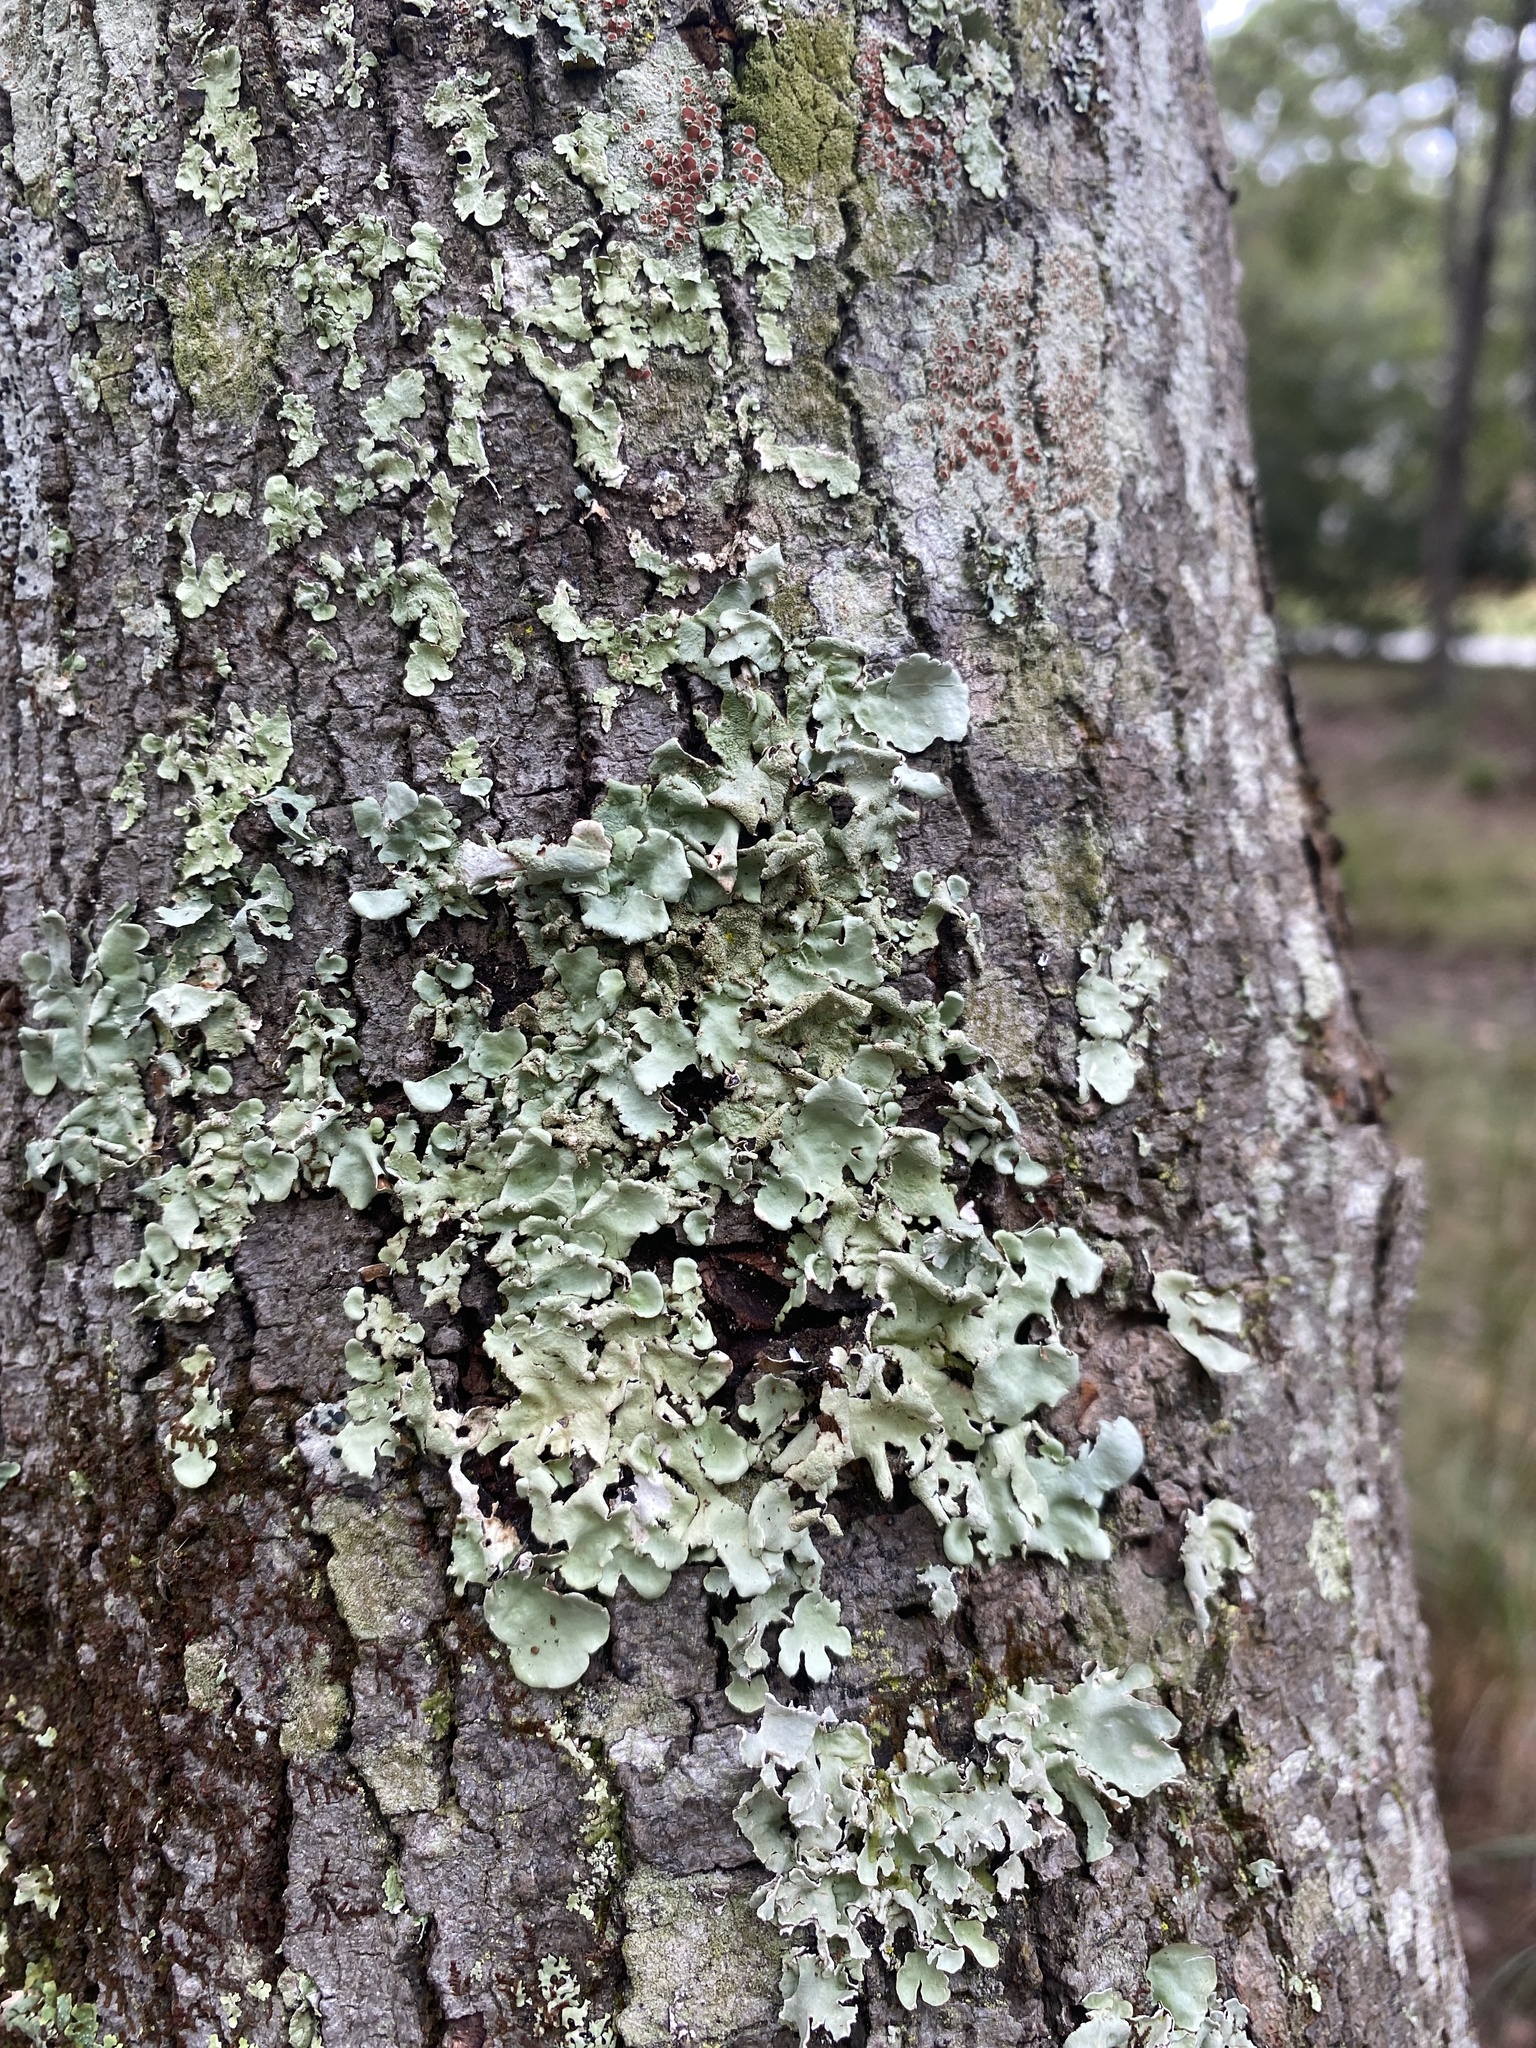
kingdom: Fungi
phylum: Ascomycota
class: Lecanoromycetes
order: Lecanorales
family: Parmeliaceae
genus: Parmotrema
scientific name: Parmotrema tinctorum
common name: Old gray ruffles
